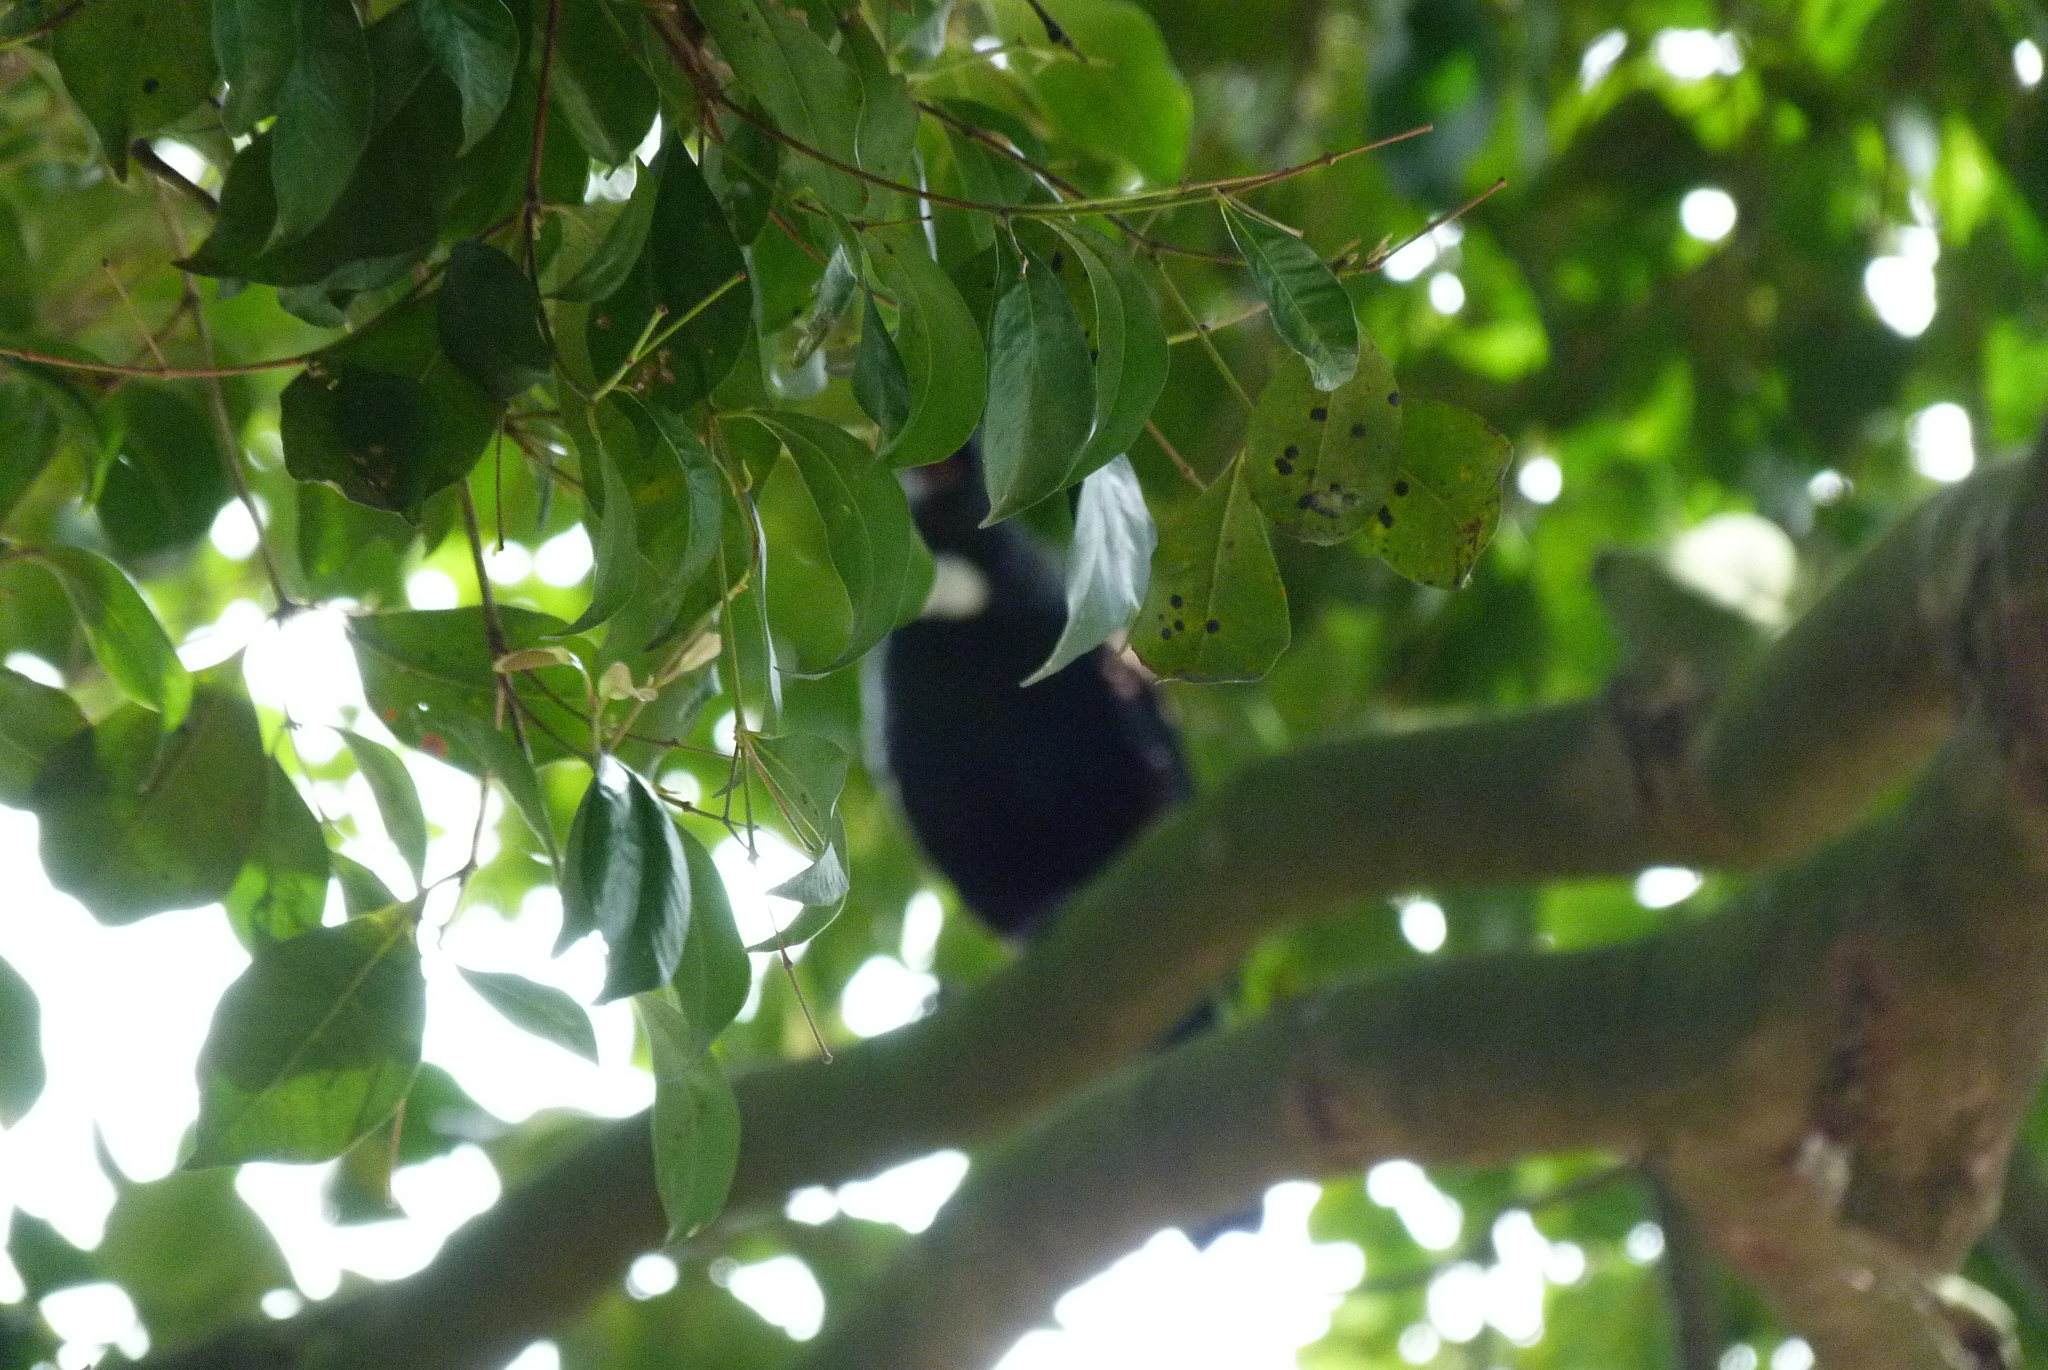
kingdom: Animalia
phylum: Chordata
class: Aves
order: Passeriformes
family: Meliphagidae
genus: Prosthemadera
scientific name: Prosthemadera novaeseelandiae
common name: Tui
